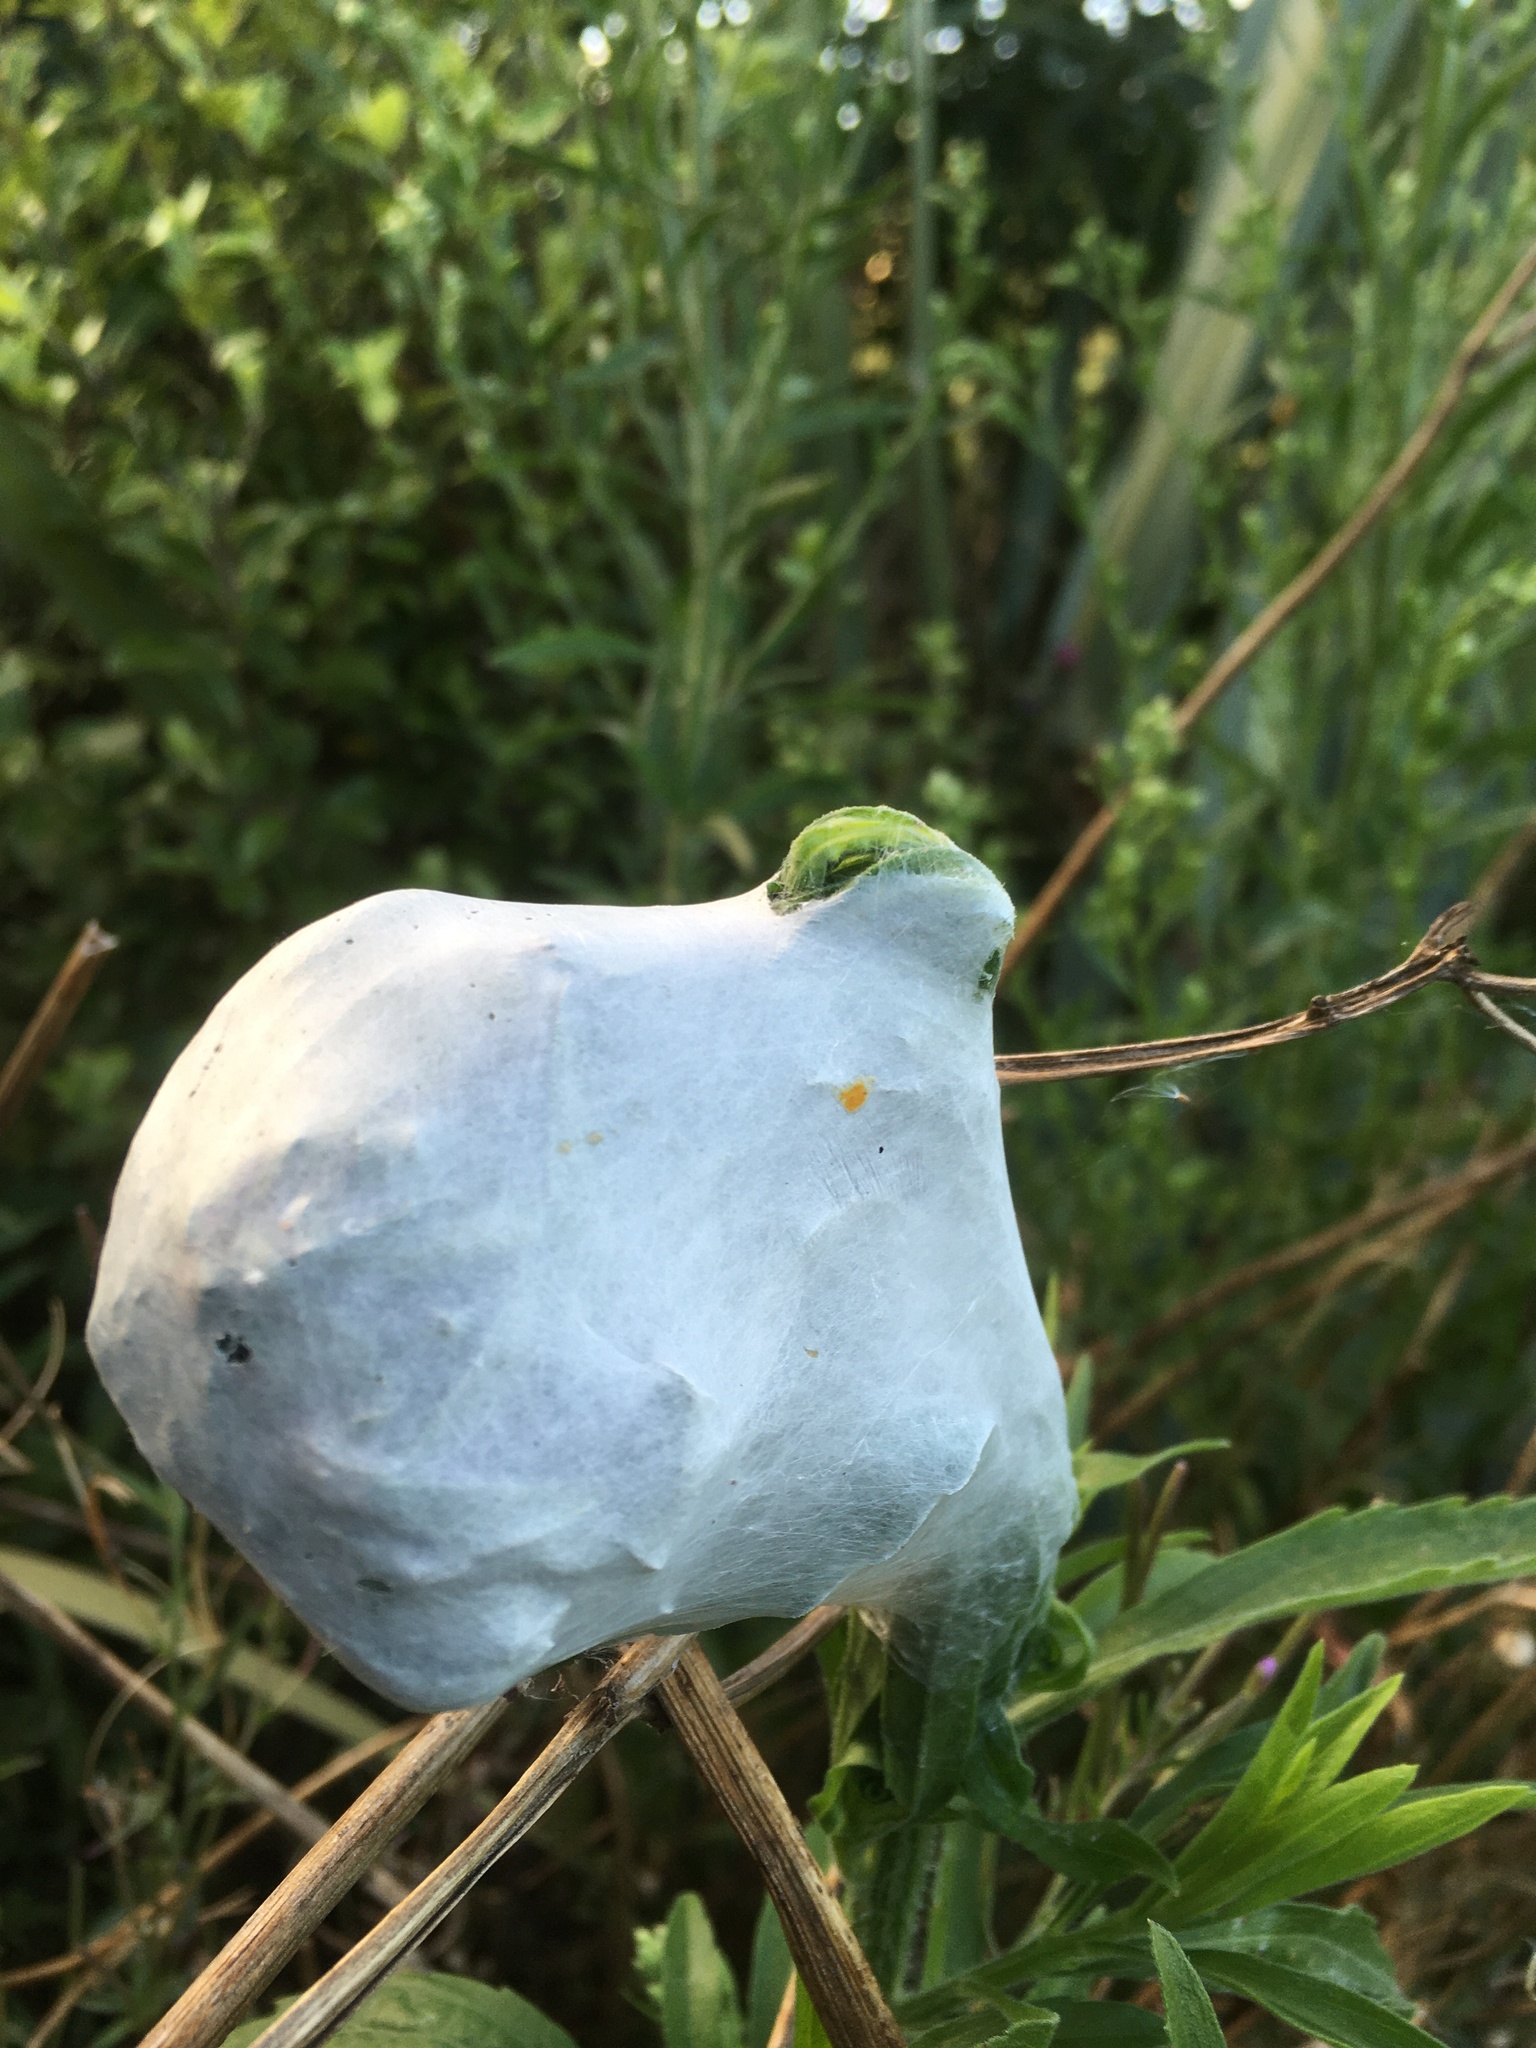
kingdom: Animalia
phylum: Arthropoda
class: Arachnida
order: Araneae
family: Pisauridae
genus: Dolomedes
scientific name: Dolomedes minor
